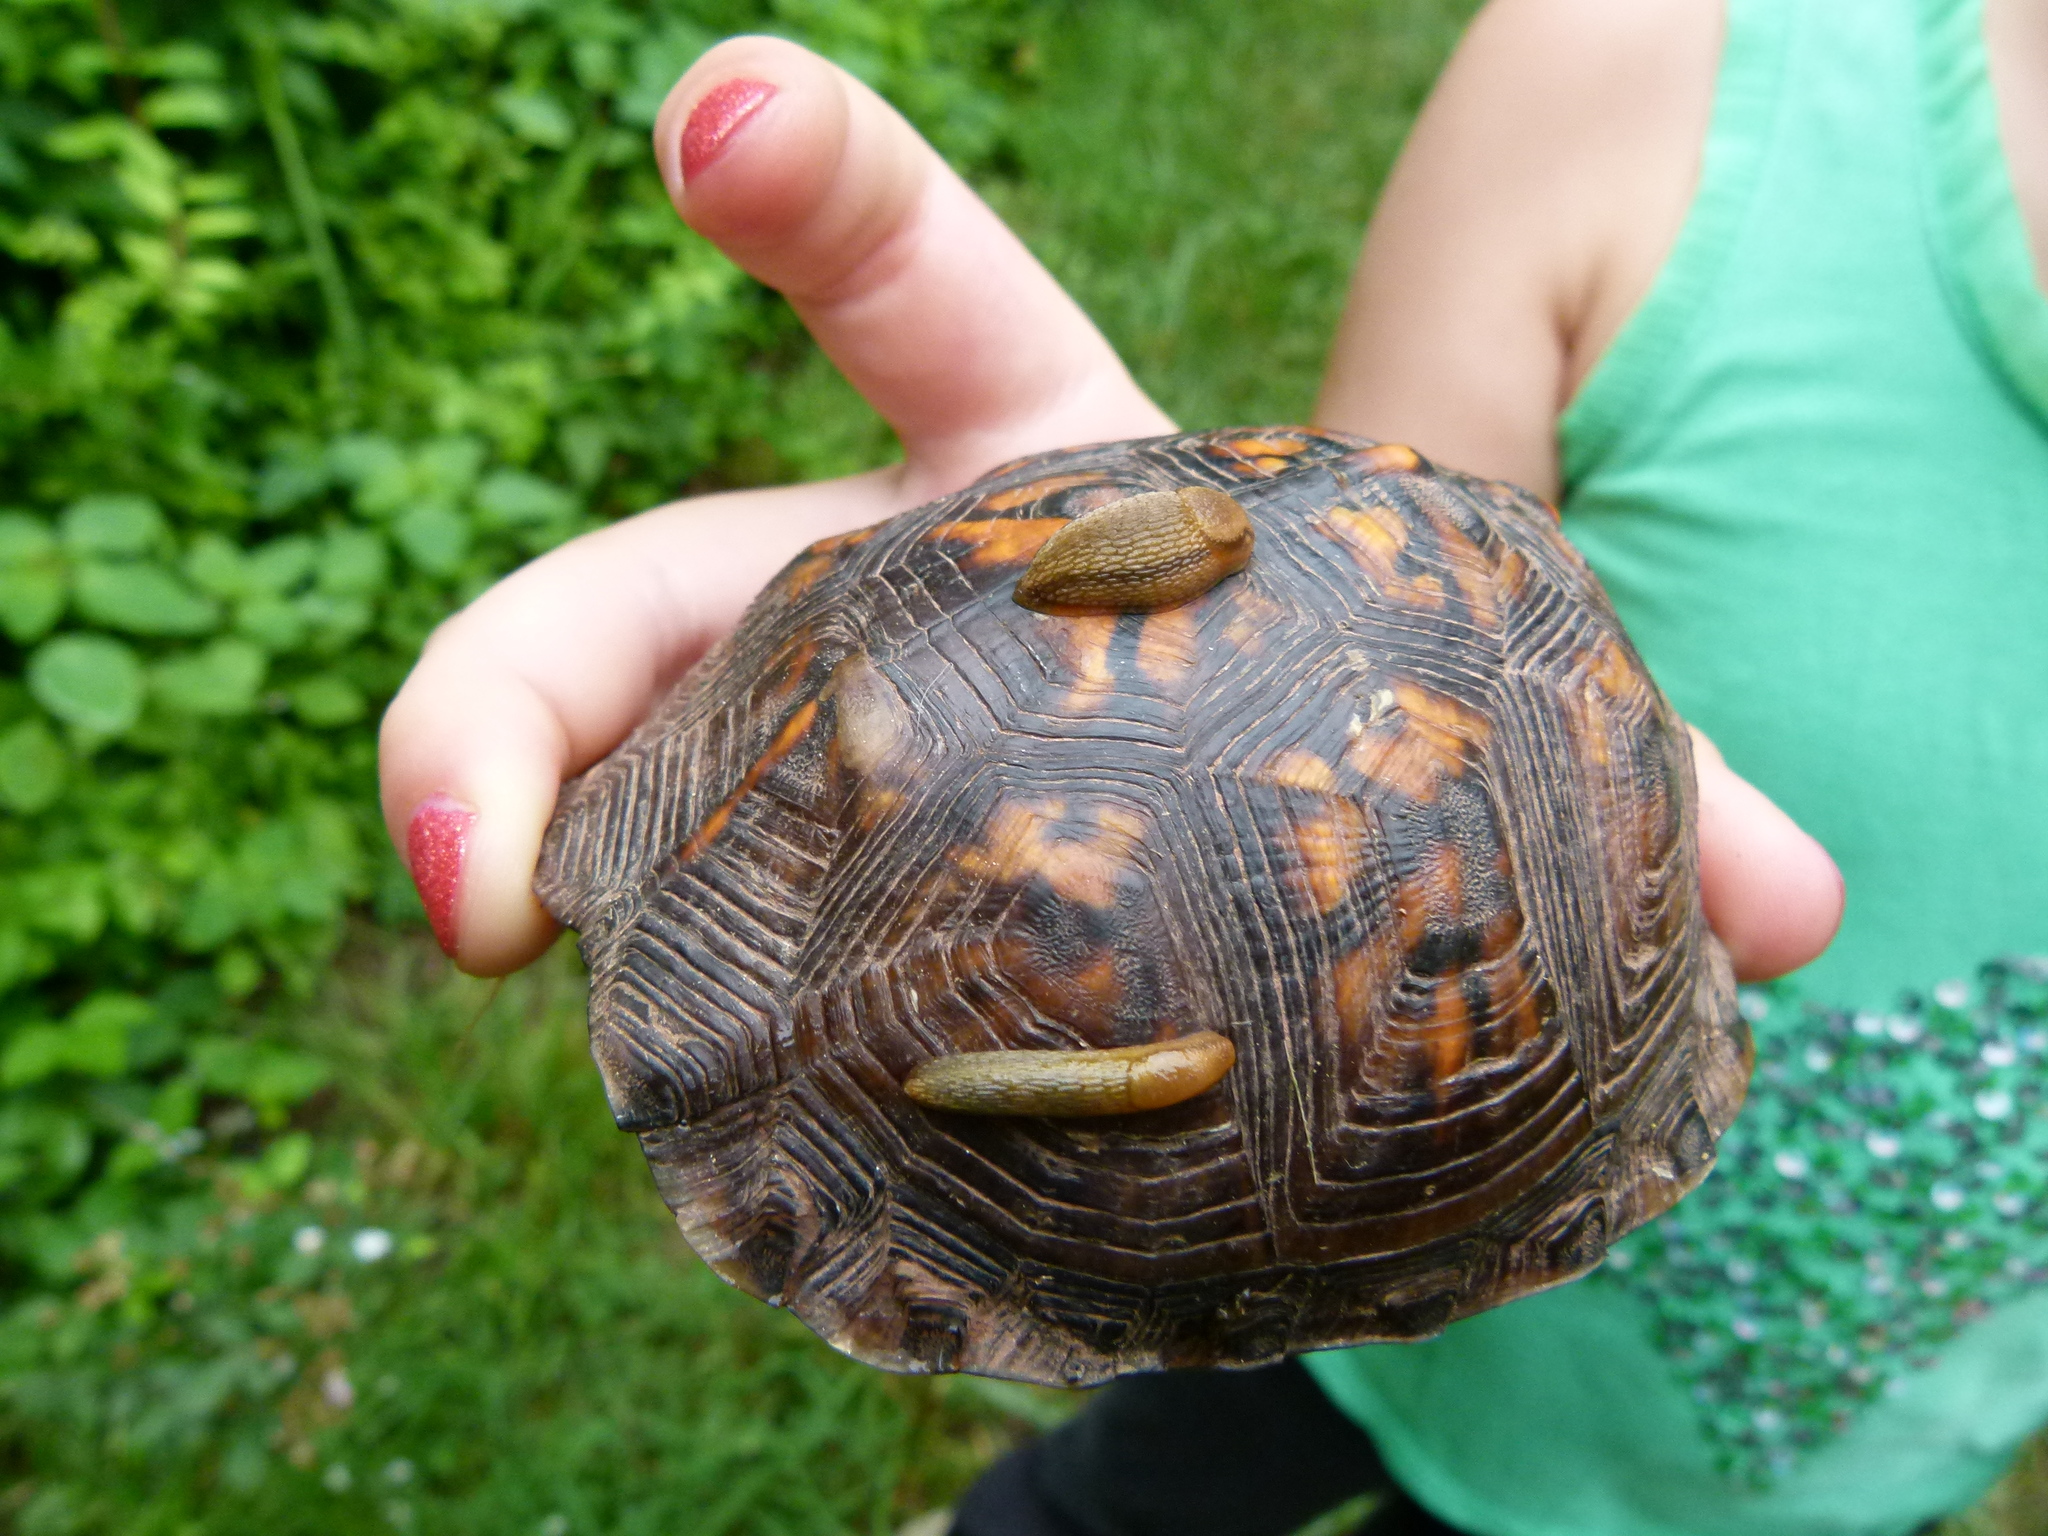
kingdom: Animalia
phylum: Chordata
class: Testudines
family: Emydidae
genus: Terrapene
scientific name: Terrapene carolina
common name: Common box turtle
